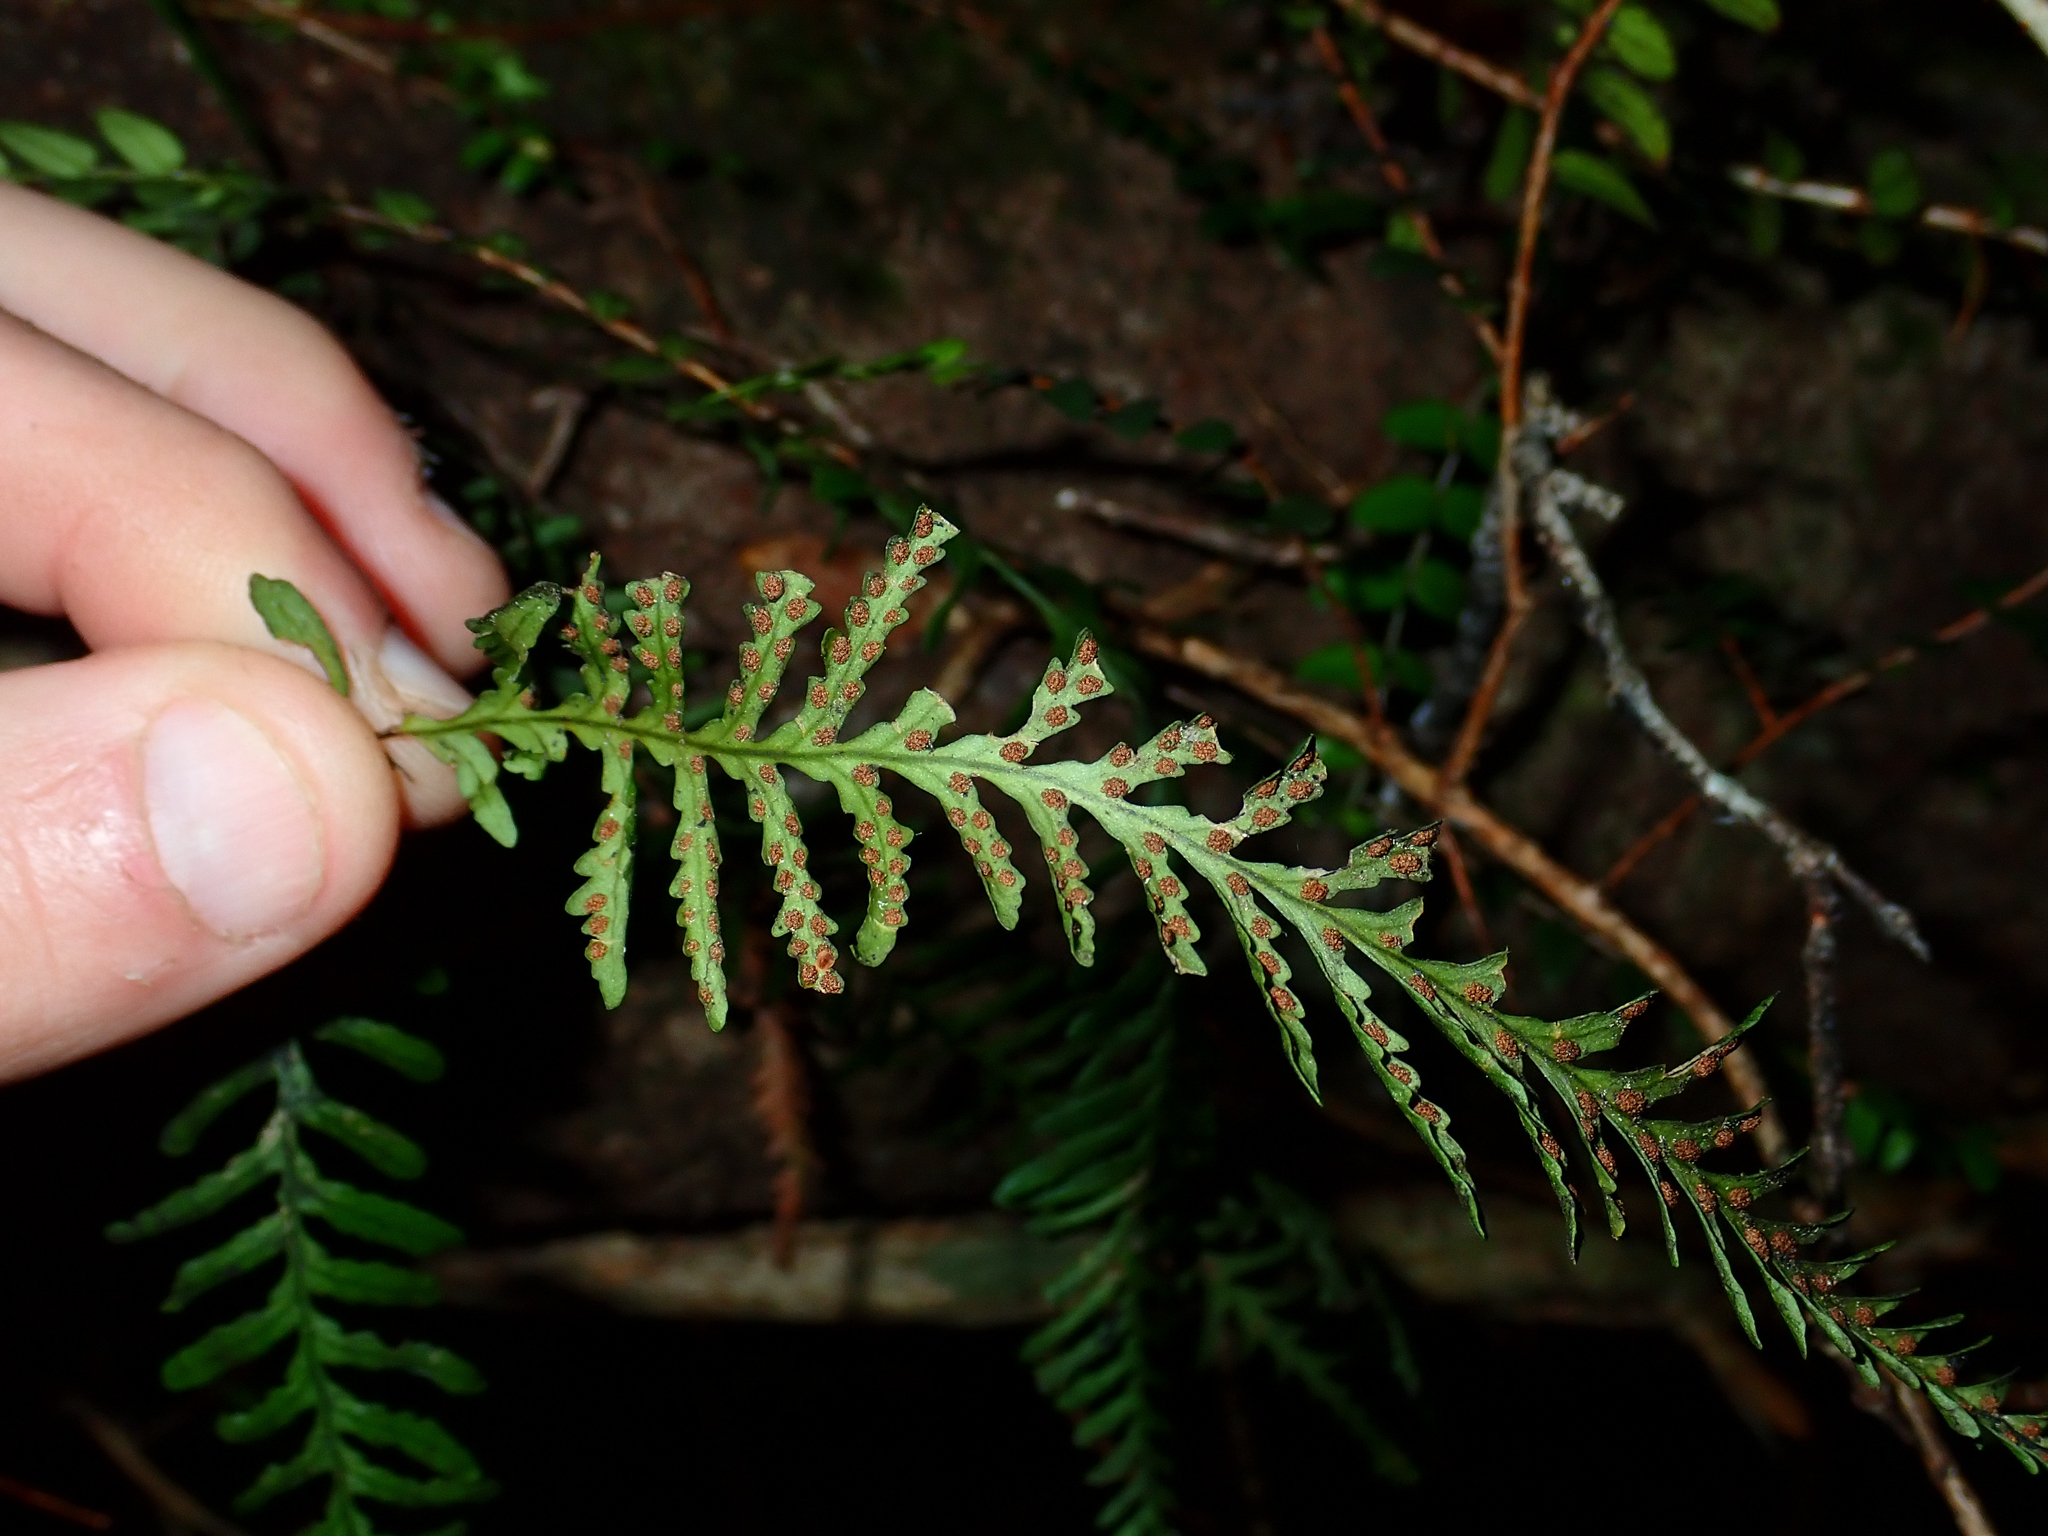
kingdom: Plantae
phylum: Tracheophyta
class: Polypodiopsida
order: Polypodiales
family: Polypodiaceae
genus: Notogrammitis
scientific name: Notogrammitis heterophylla
